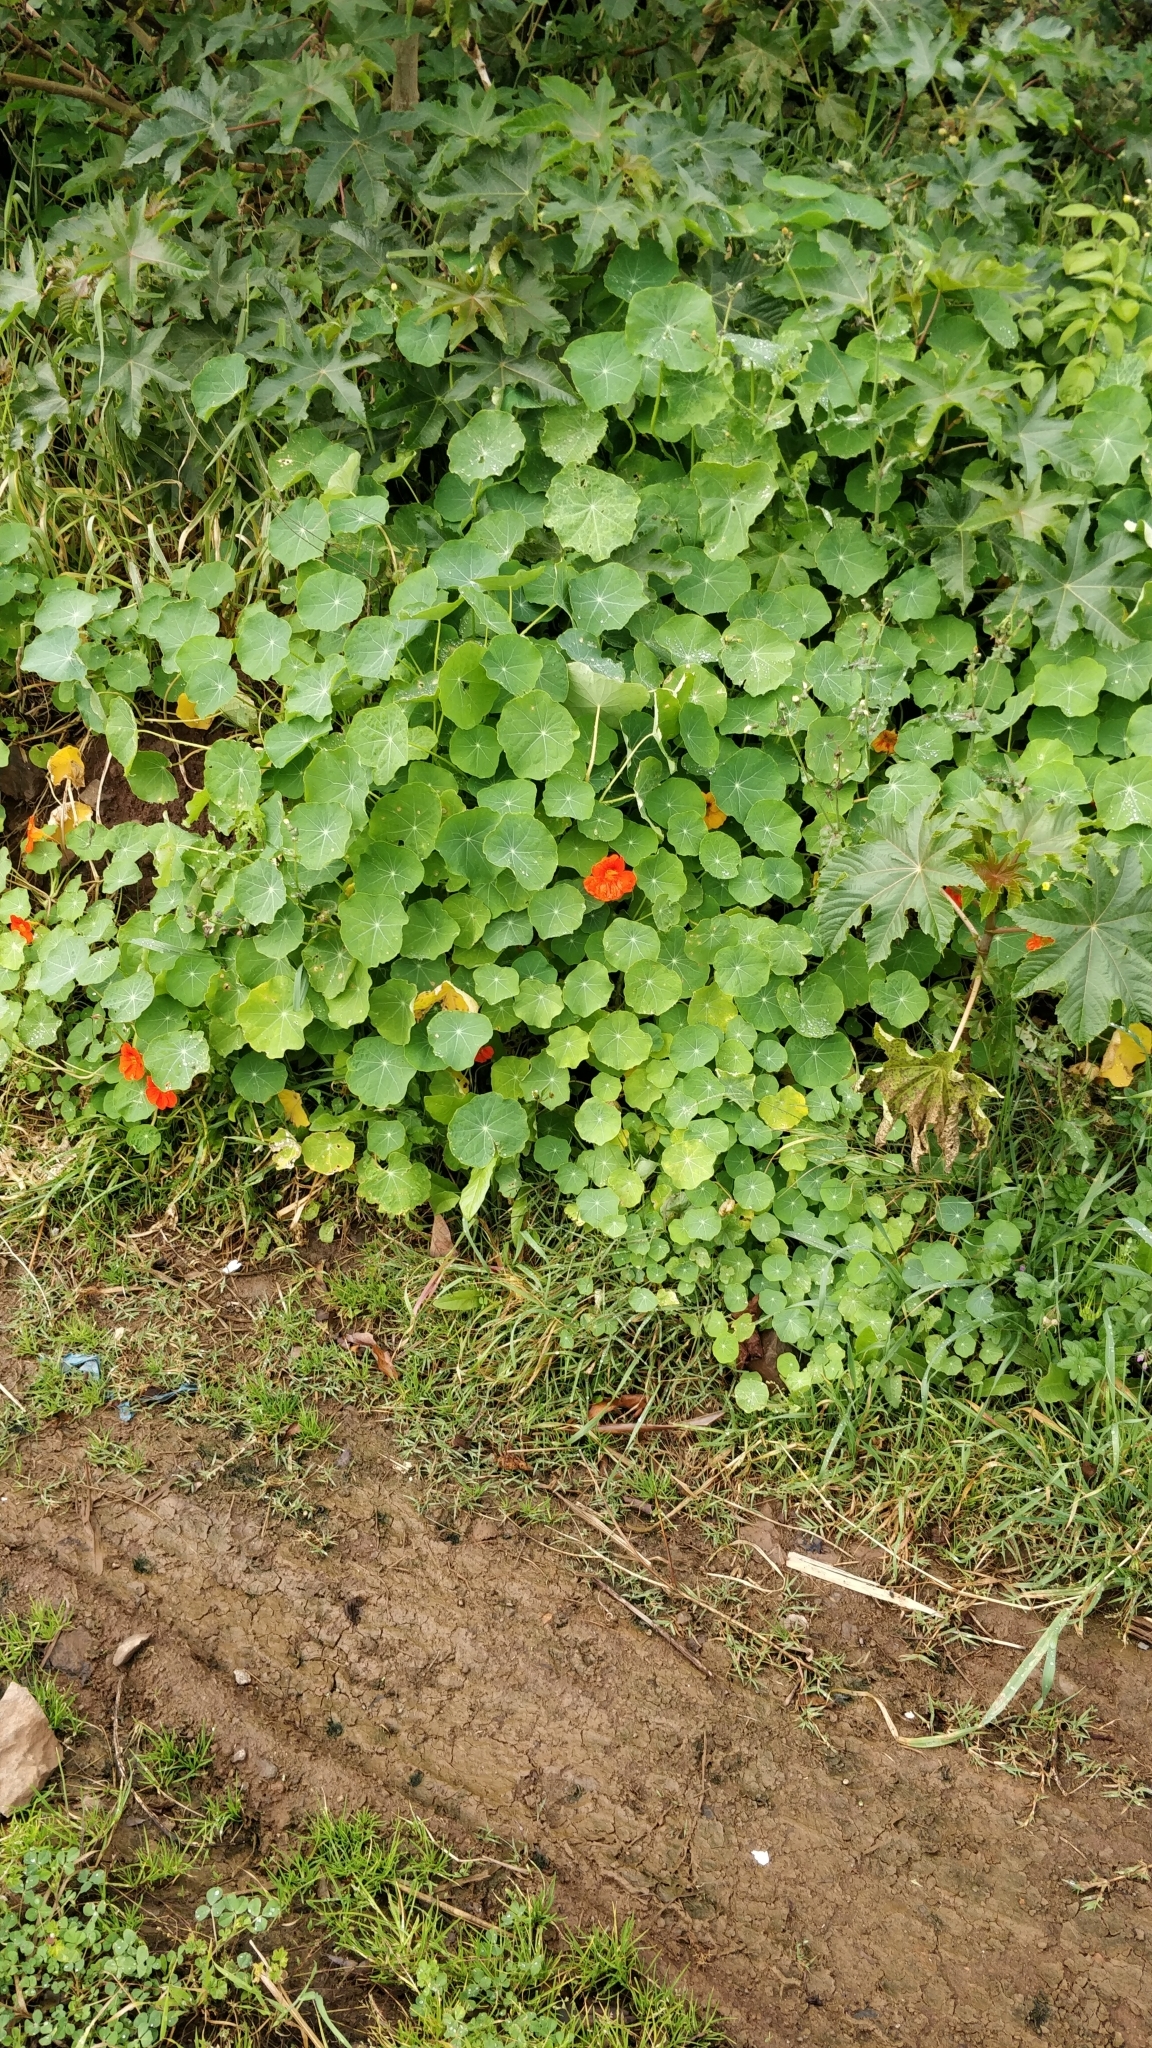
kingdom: Plantae
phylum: Tracheophyta
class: Magnoliopsida
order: Brassicales
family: Tropaeolaceae
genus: Tropaeolum
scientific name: Tropaeolum majus
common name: Nasturtium
